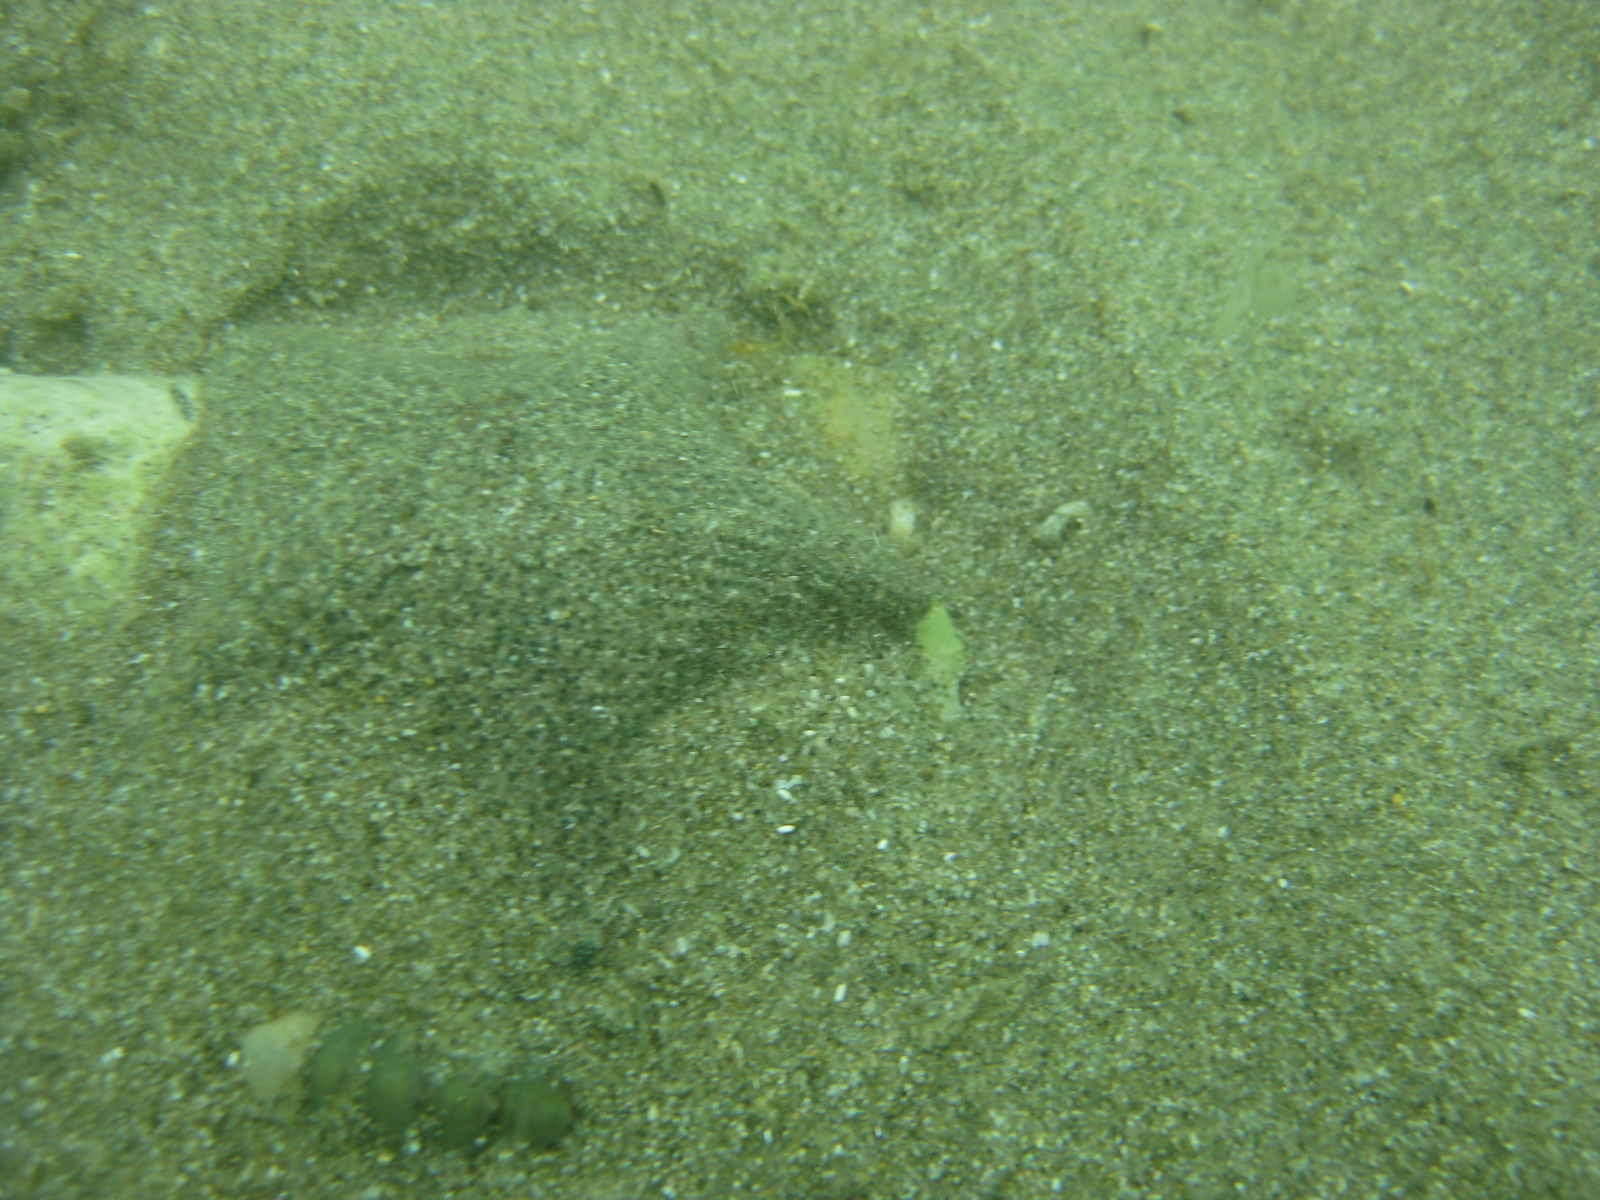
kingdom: Animalia
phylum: Echinodermata
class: Asteroidea
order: Valvatida
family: Asterinidae
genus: Patiriella
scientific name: Patiriella regularis
